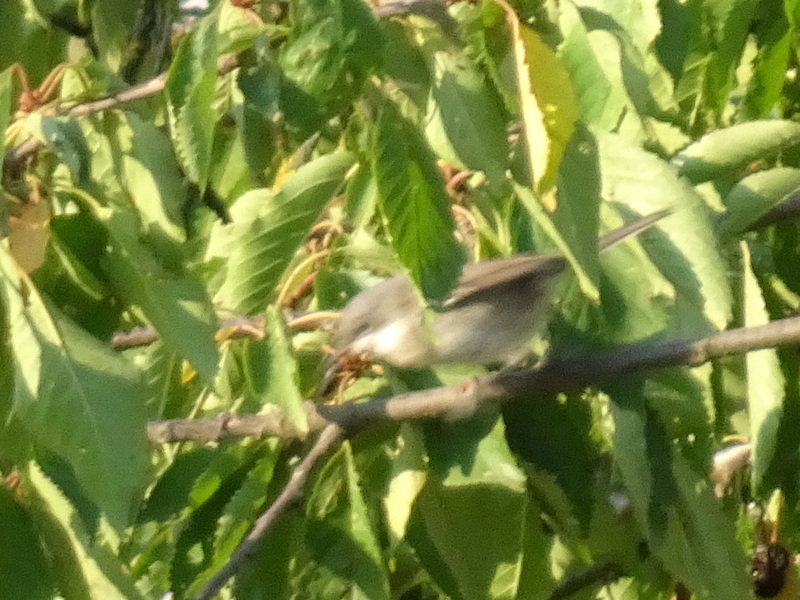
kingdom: Animalia
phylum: Chordata
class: Aves
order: Passeriformes
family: Sylviidae
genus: Sylvia
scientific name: Sylvia curruca
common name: Lesser whitethroat
